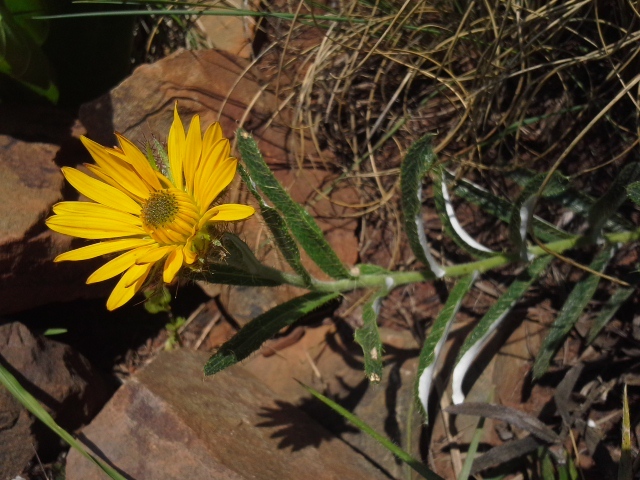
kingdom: Plantae
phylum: Tracheophyta
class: Magnoliopsida
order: Asterales
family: Asteraceae
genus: Berkheya
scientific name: Berkheya seminivea
